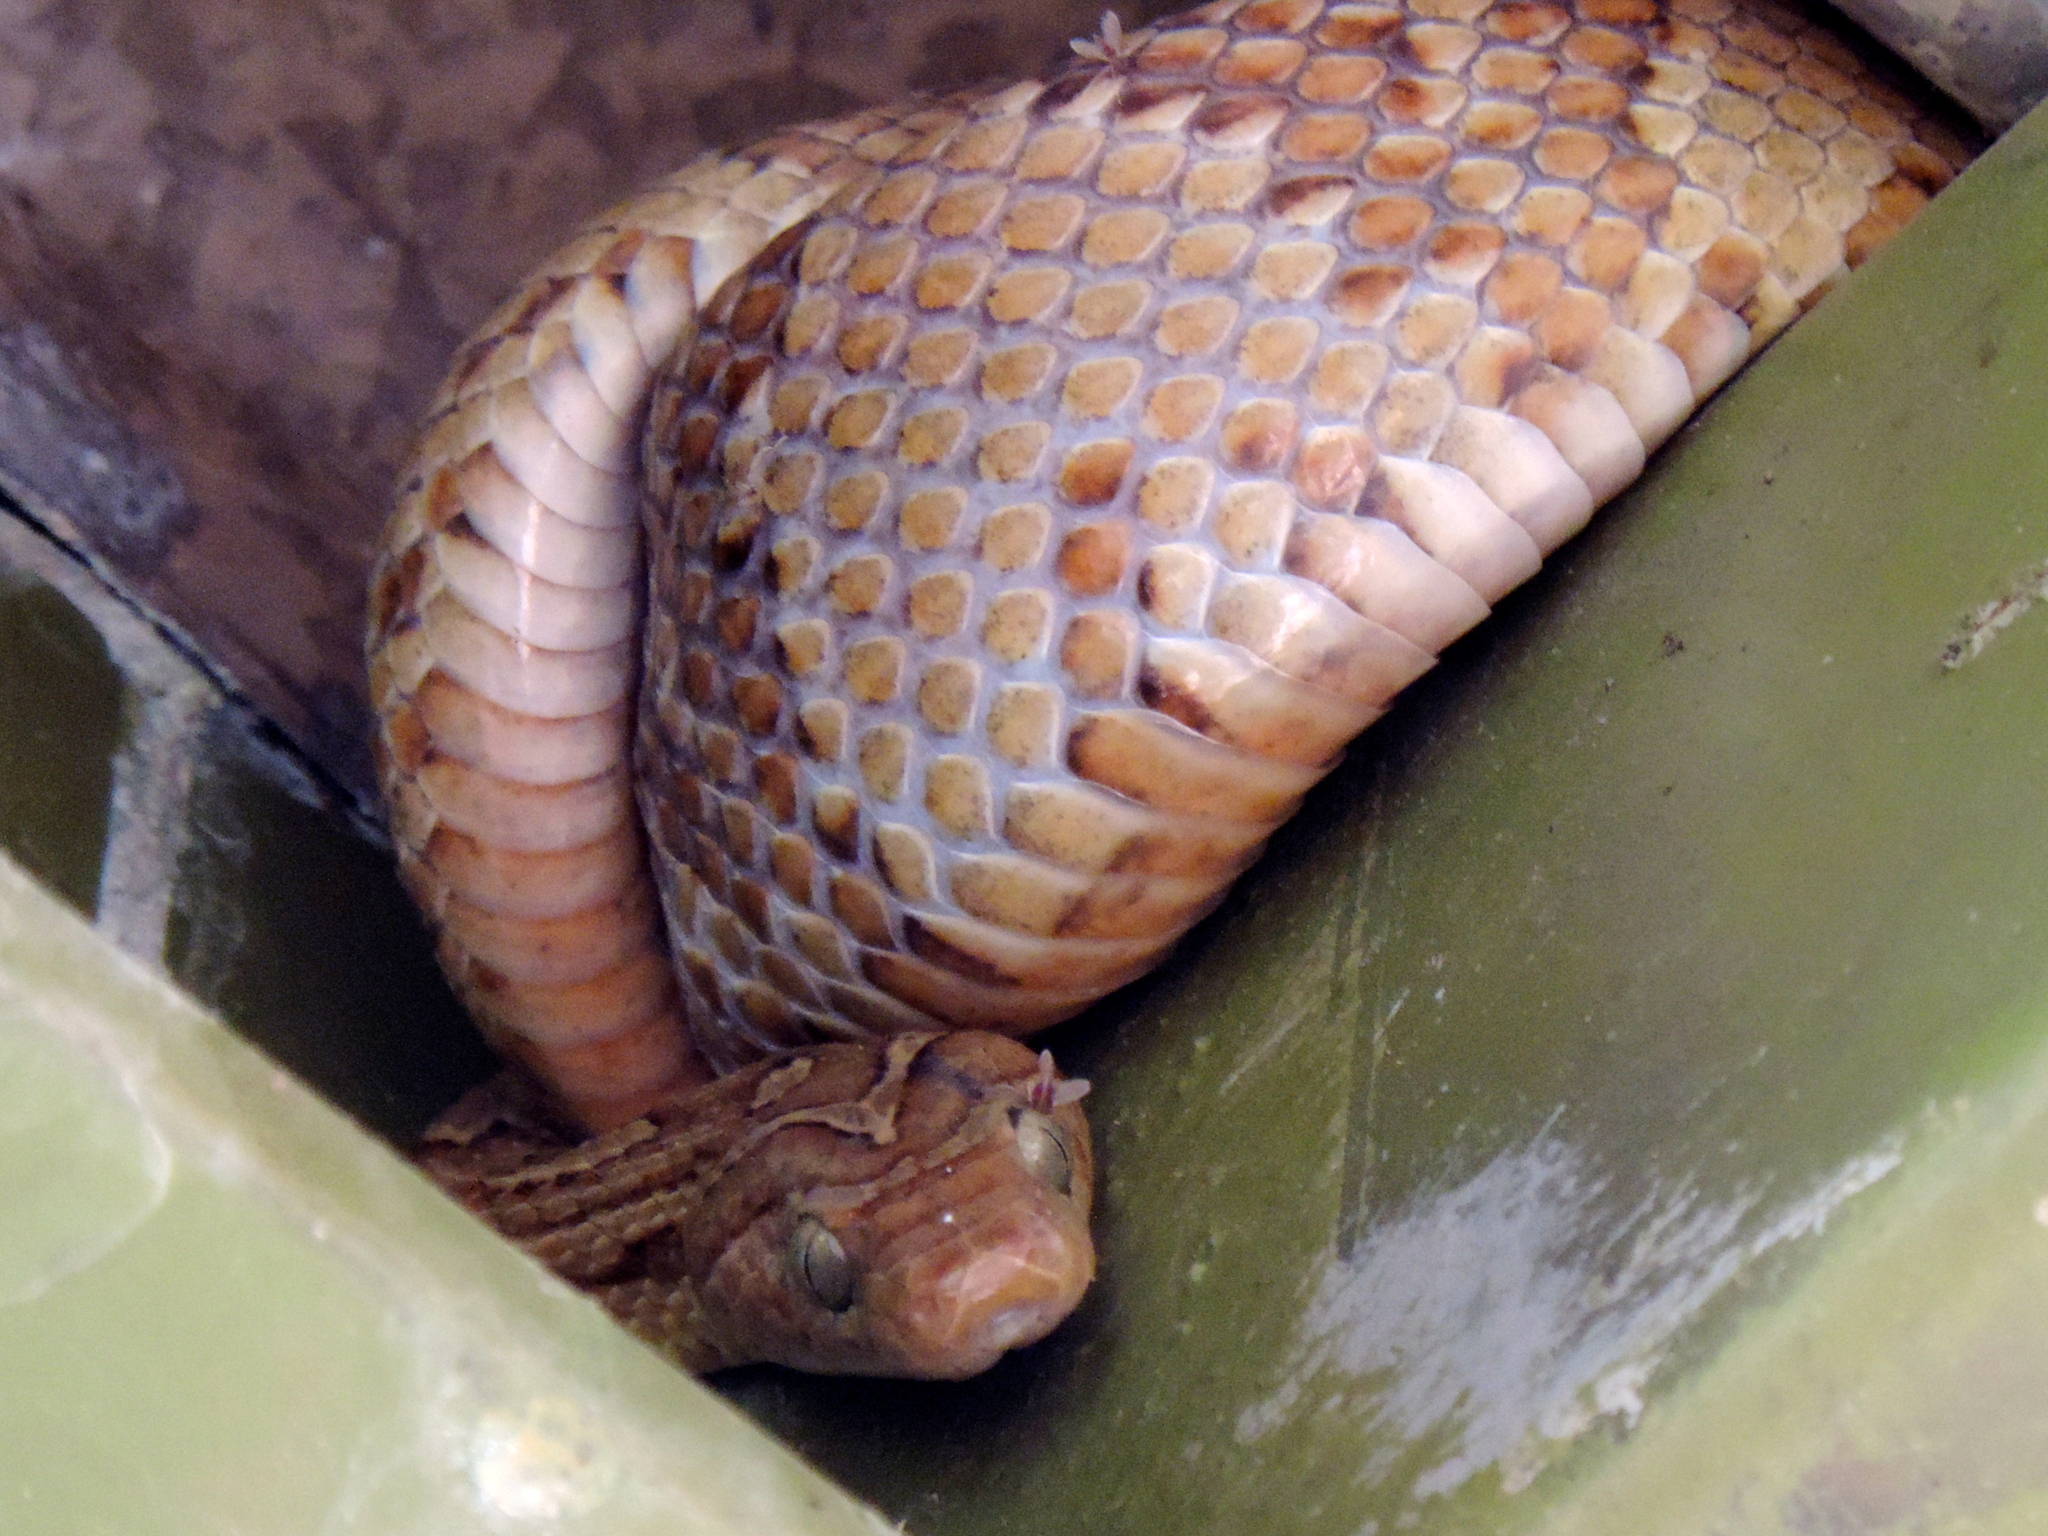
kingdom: Animalia
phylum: Chordata
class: Squamata
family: Colubridae
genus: Trimorphodon
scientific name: Trimorphodon paucimaculatus
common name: Sinaloan lyresnake
